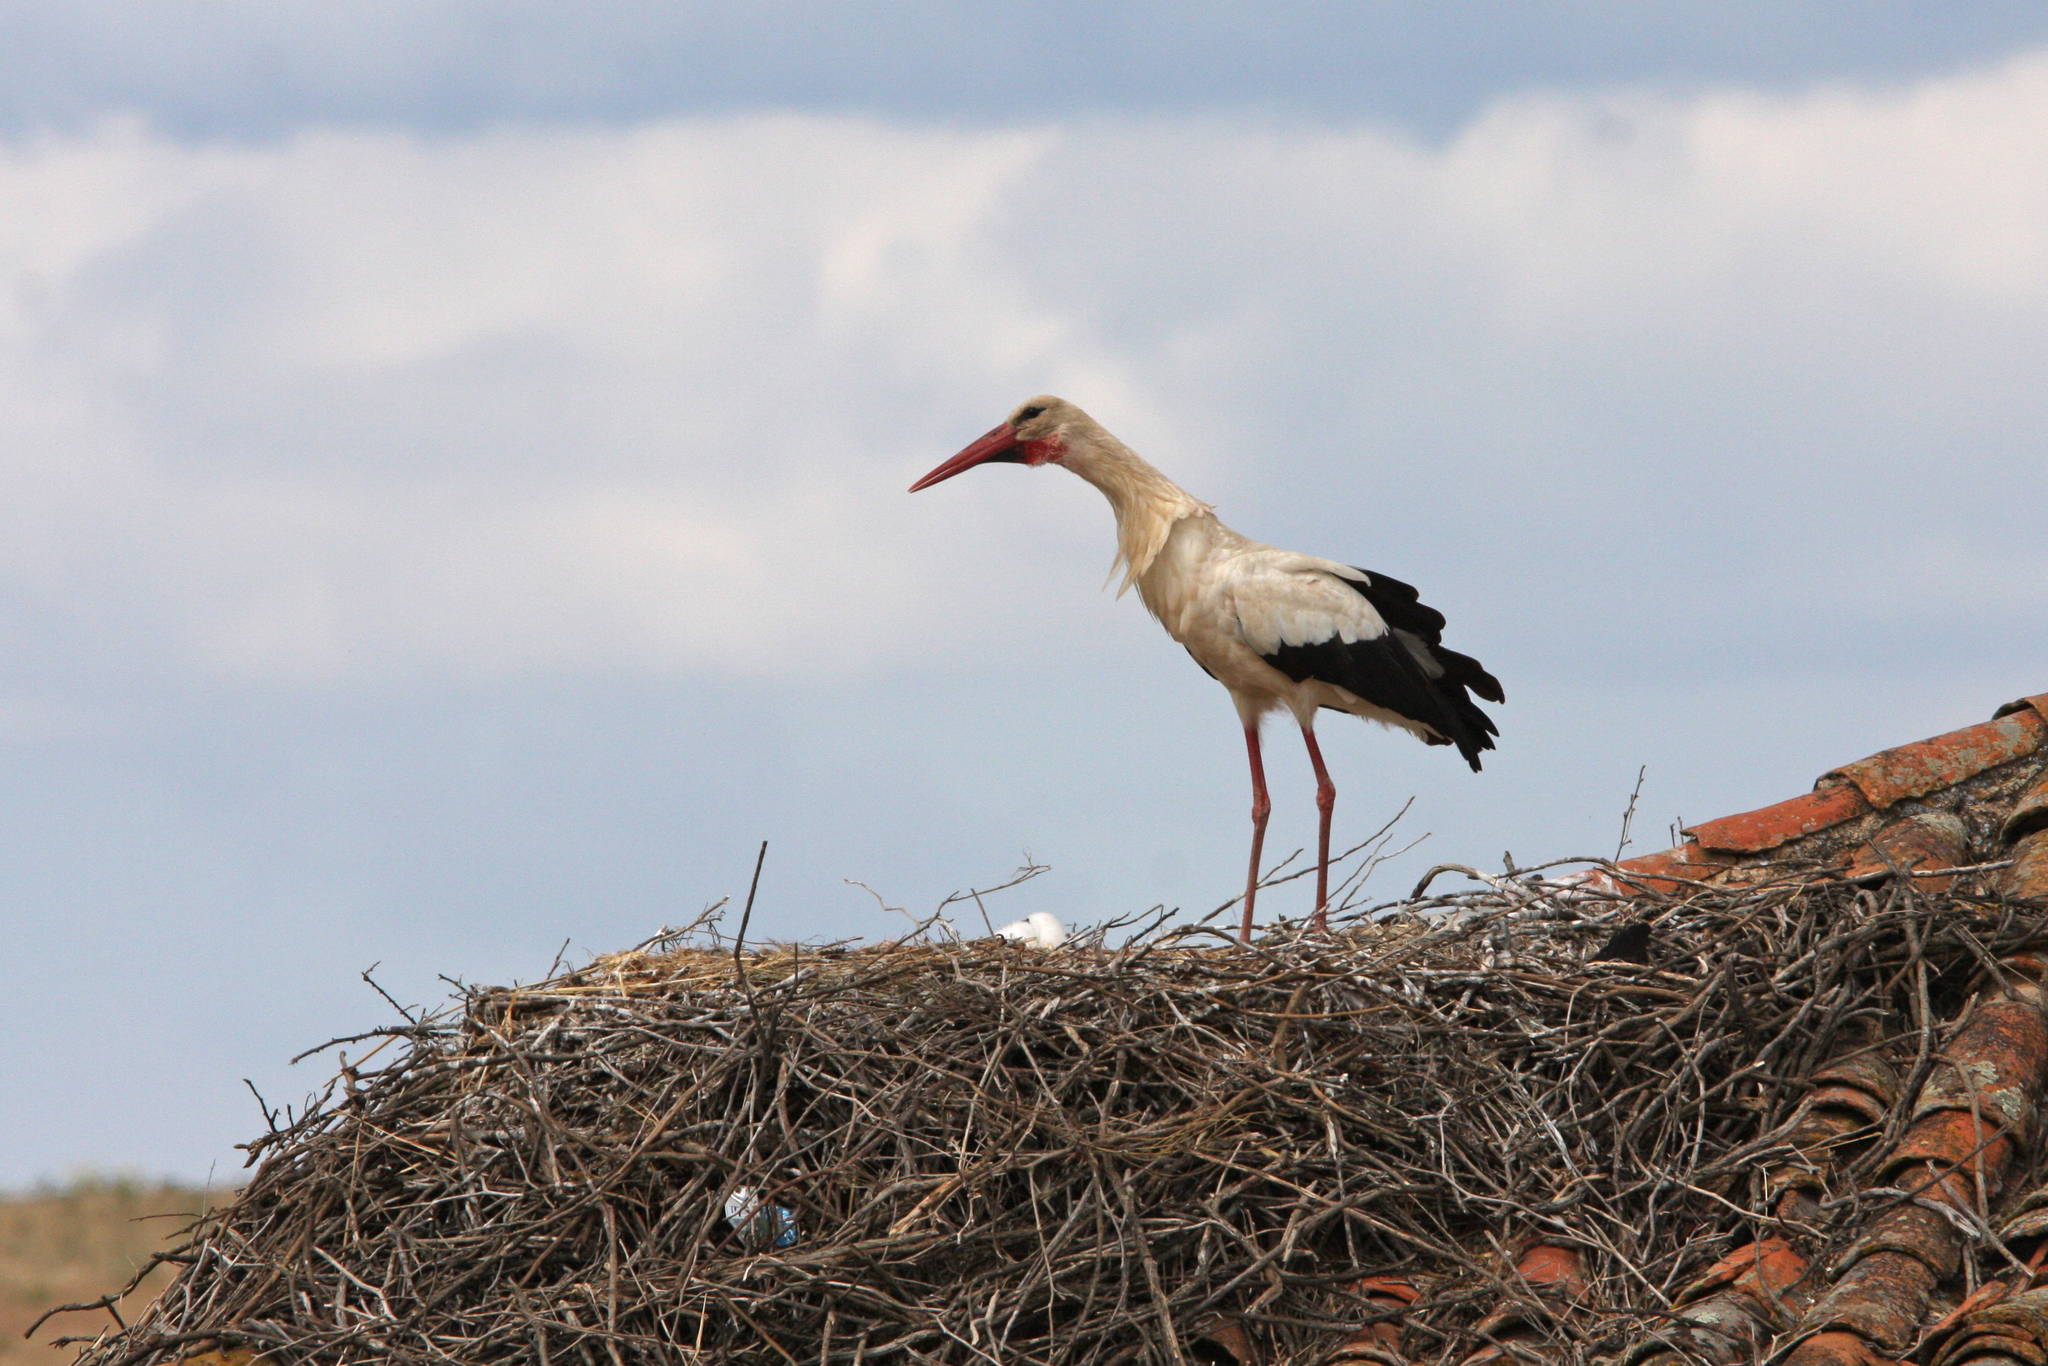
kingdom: Animalia
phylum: Chordata
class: Aves
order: Ciconiiformes
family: Ciconiidae
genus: Ciconia
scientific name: Ciconia ciconia
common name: White stork
